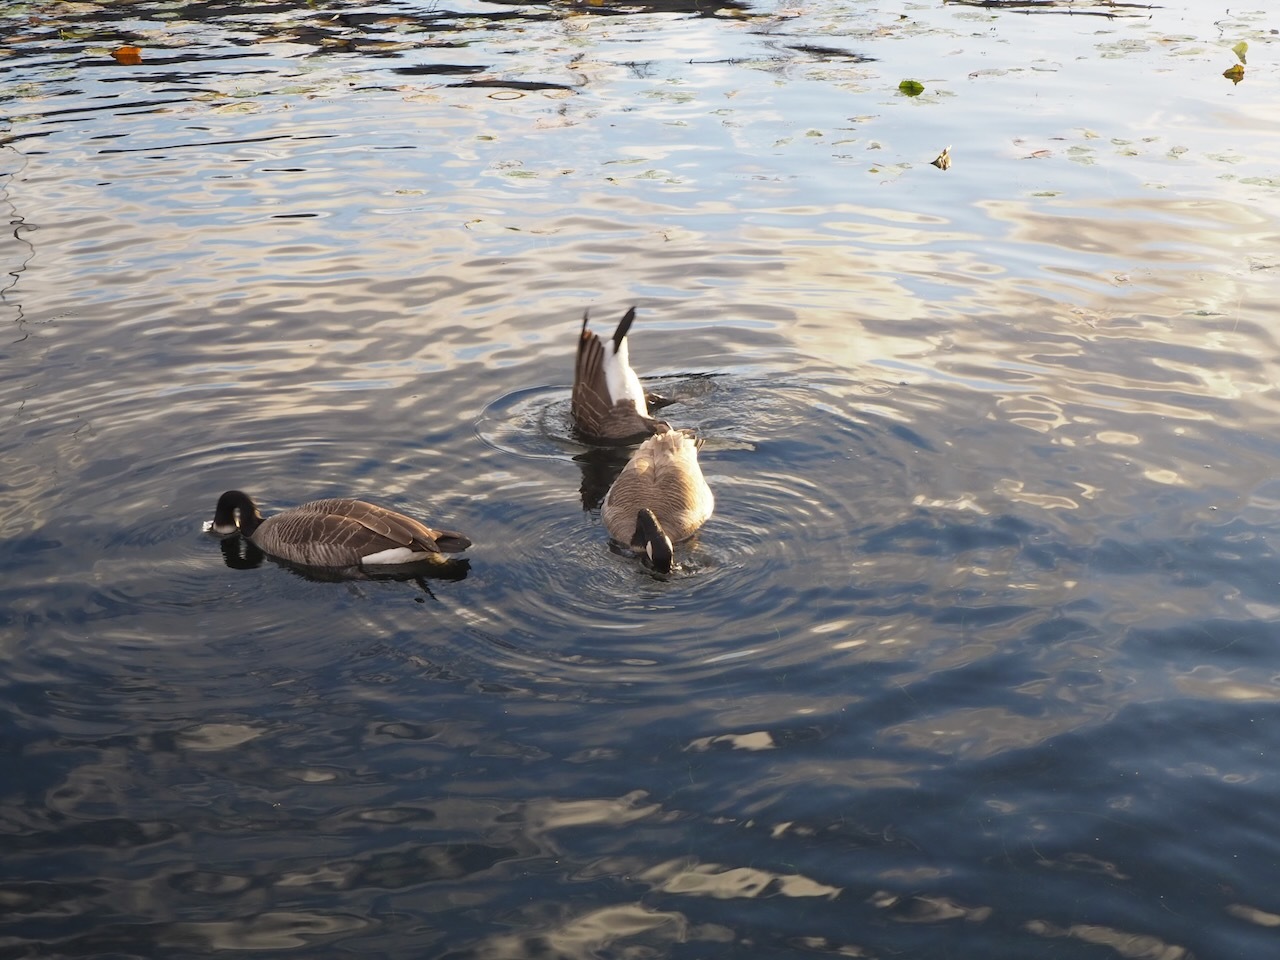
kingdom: Animalia
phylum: Chordata
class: Aves
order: Anseriformes
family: Anatidae
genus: Branta
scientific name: Branta canadensis
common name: Canada goose
